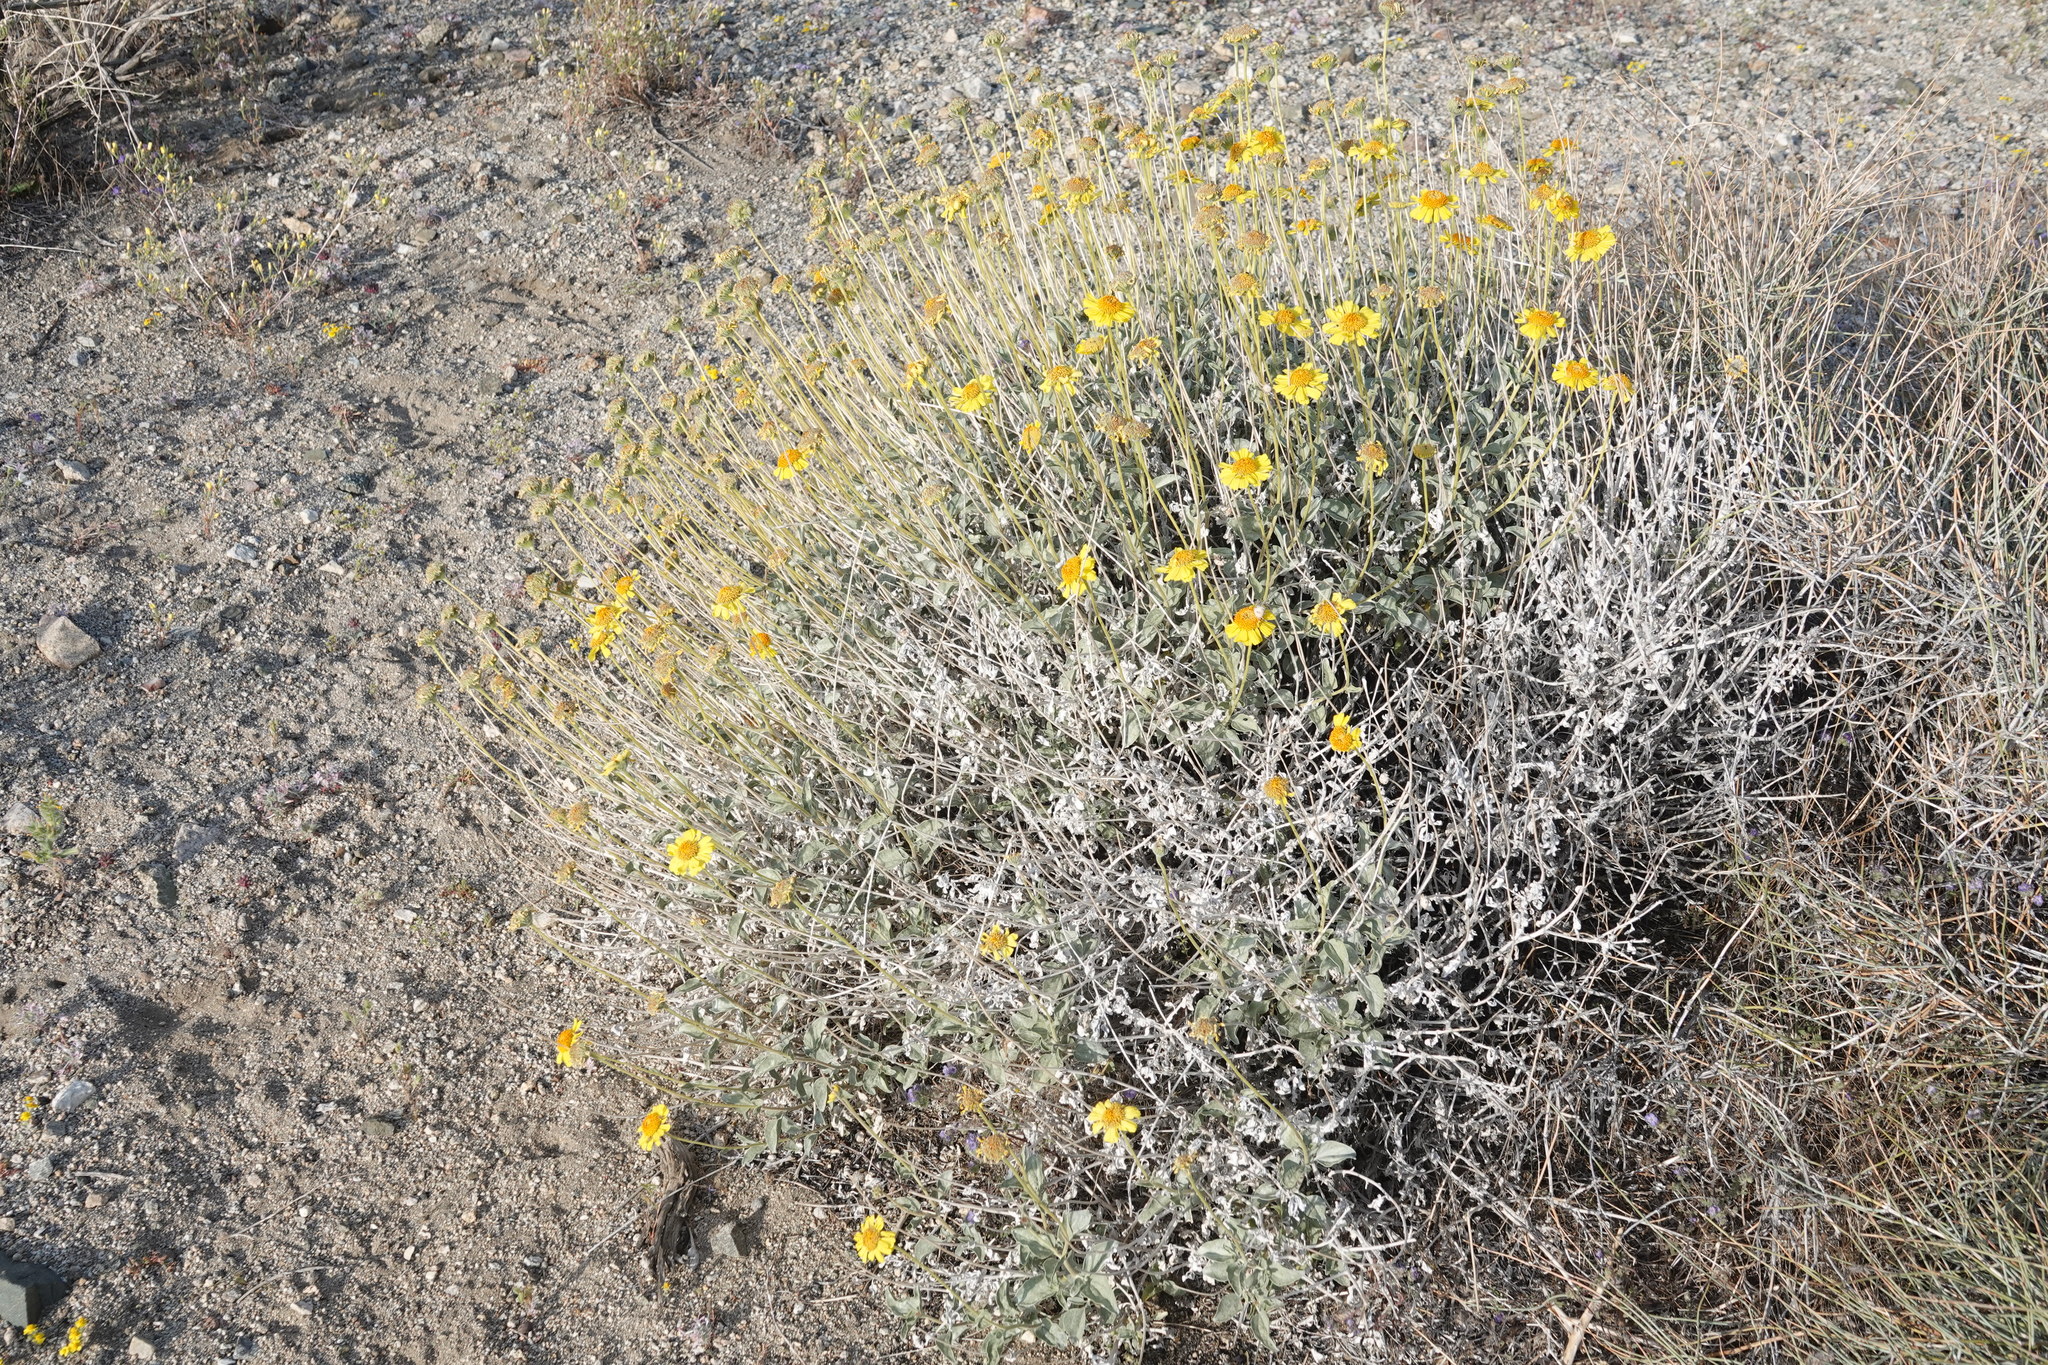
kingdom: Plantae
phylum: Tracheophyta
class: Magnoliopsida
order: Asterales
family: Asteraceae
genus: Encelia
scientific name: Encelia farinosa
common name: Brittlebush
